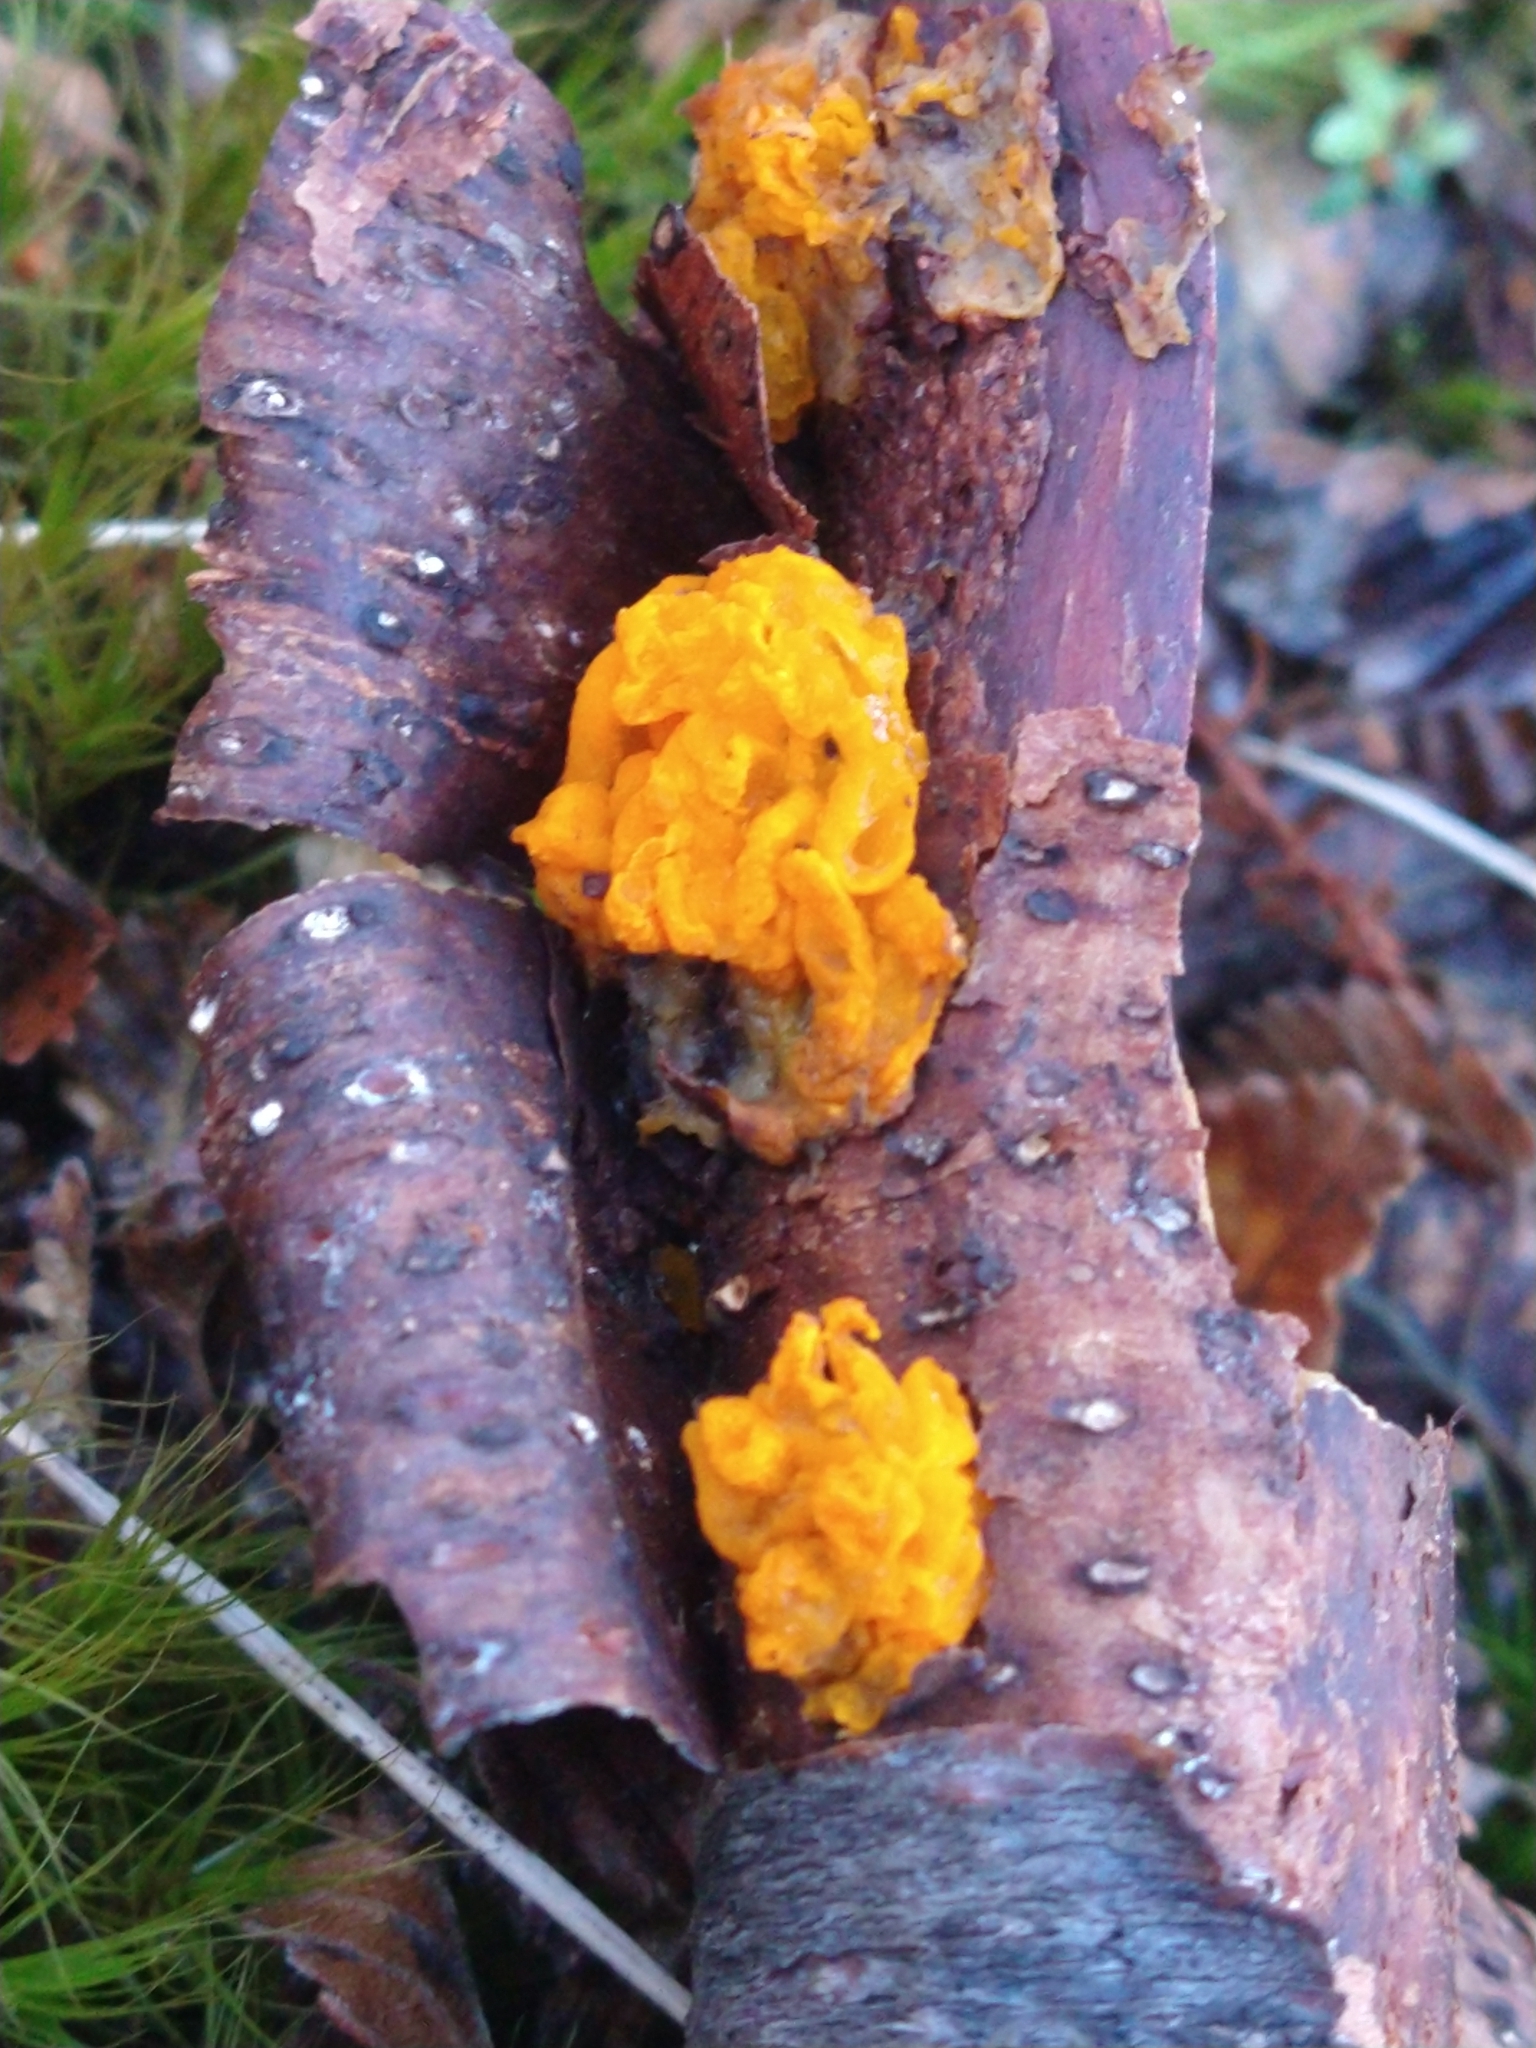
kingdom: Fungi
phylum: Basidiomycota
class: Tremellomycetes
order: Tremellales
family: Tremellaceae
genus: Tremella
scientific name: Tremella mesenterica
